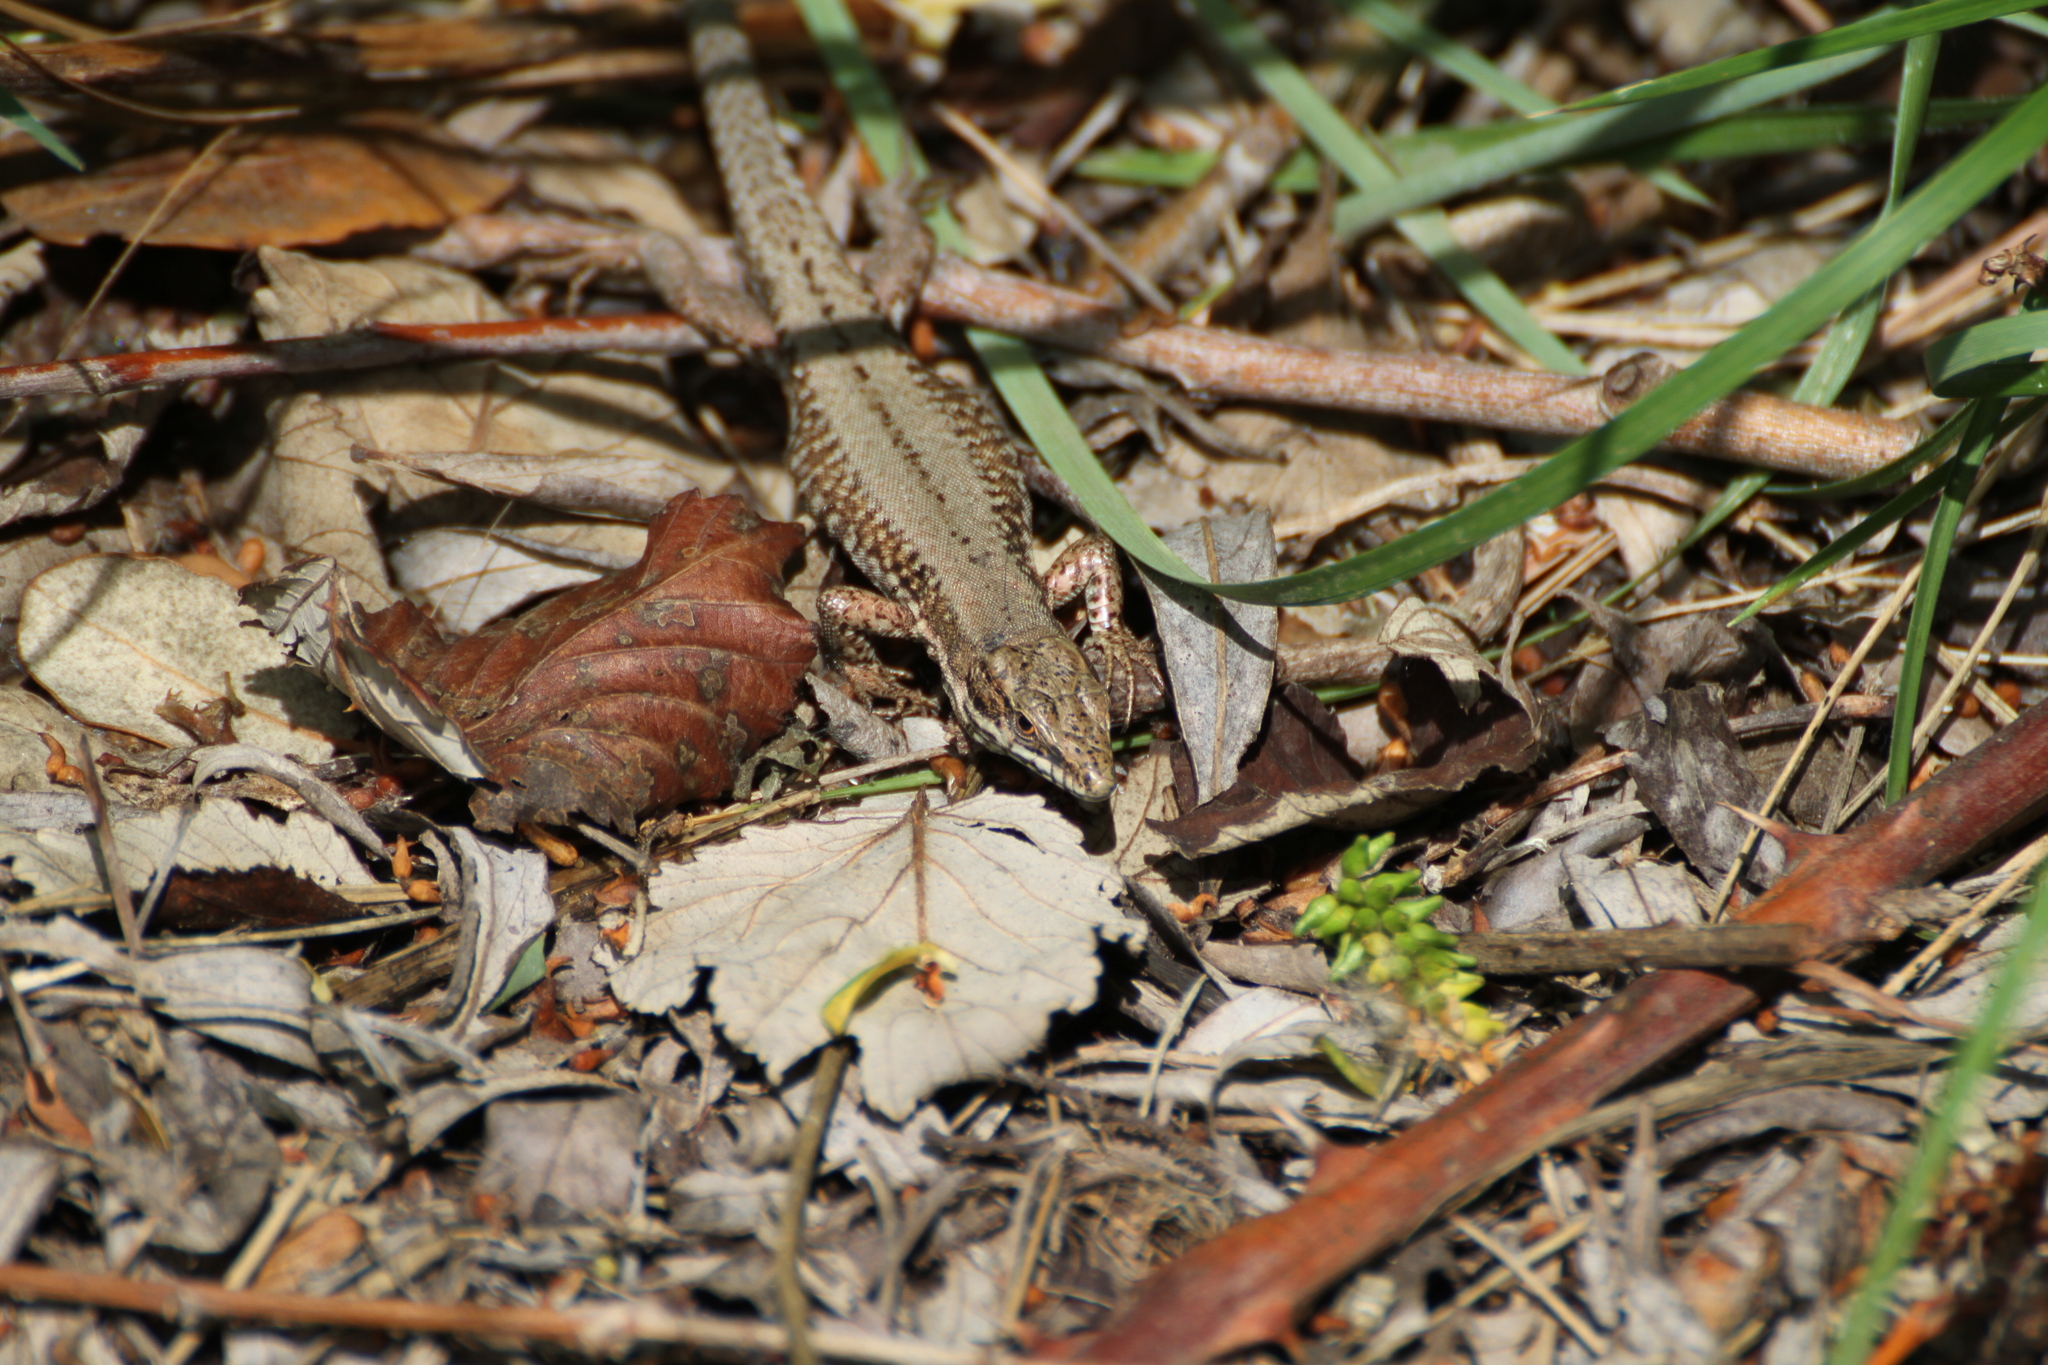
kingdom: Animalia
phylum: Chordata
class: Squamata
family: Lacertidae
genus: Podarcis
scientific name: Podarcis muralis
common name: Common wall lizard
